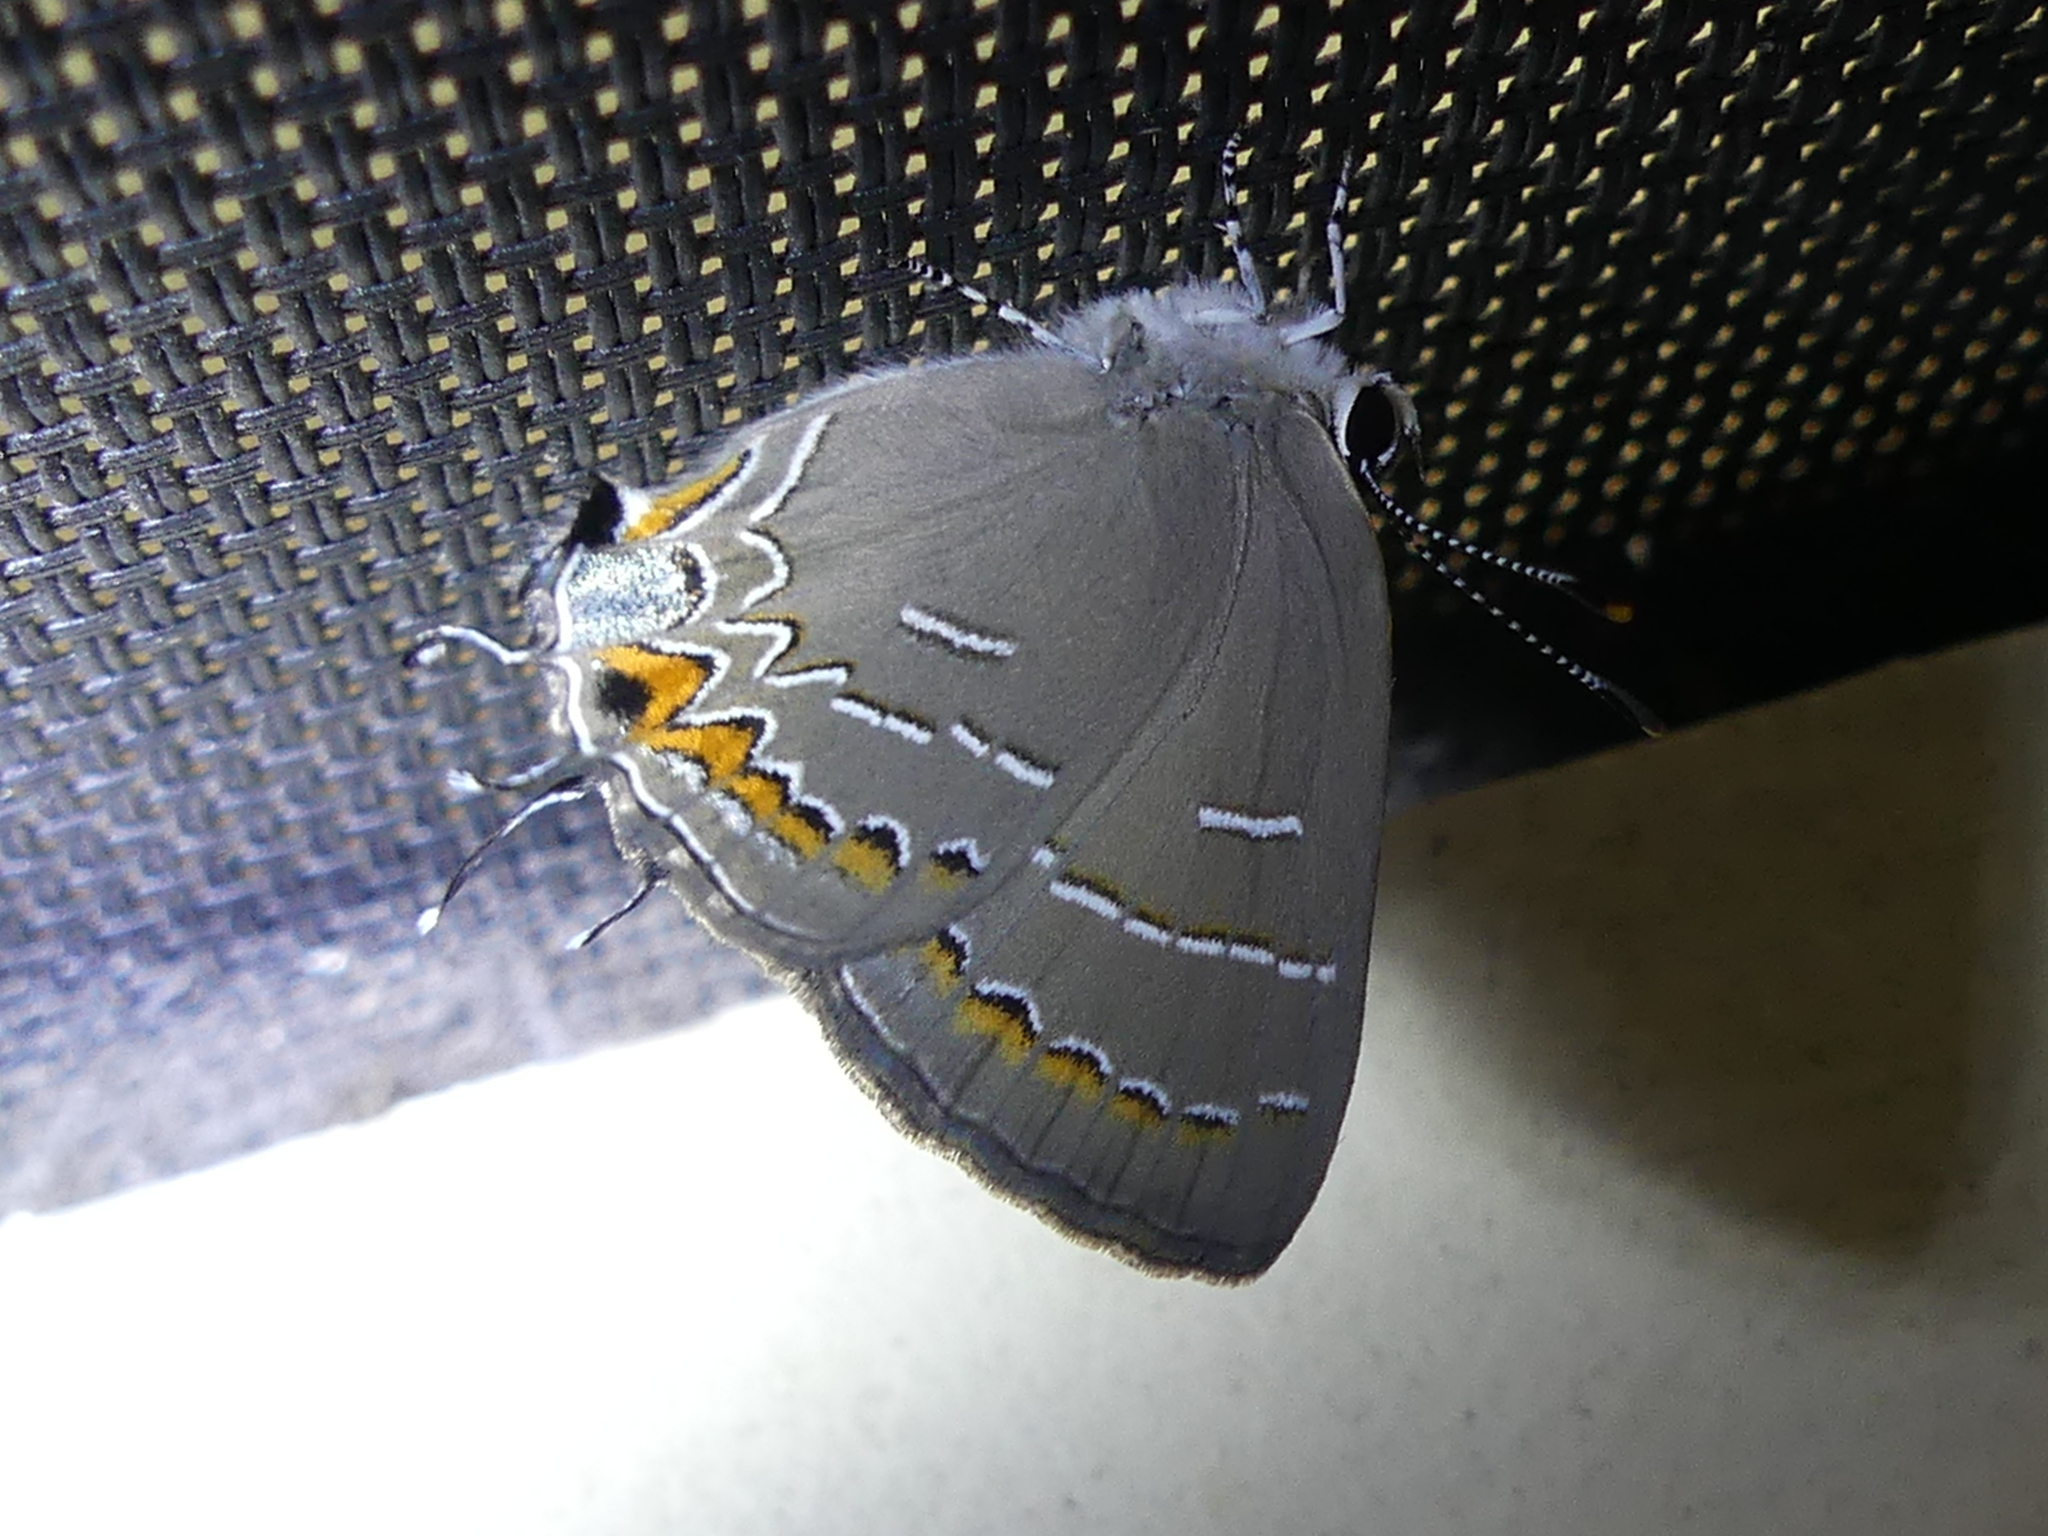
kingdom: Animalia
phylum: Arthropoda
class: Insecta
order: Lepidoptera
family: Lycaenidae
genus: Phaeostrymon
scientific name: Phaeostrymon alcestis
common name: Soapberry hairstreak
